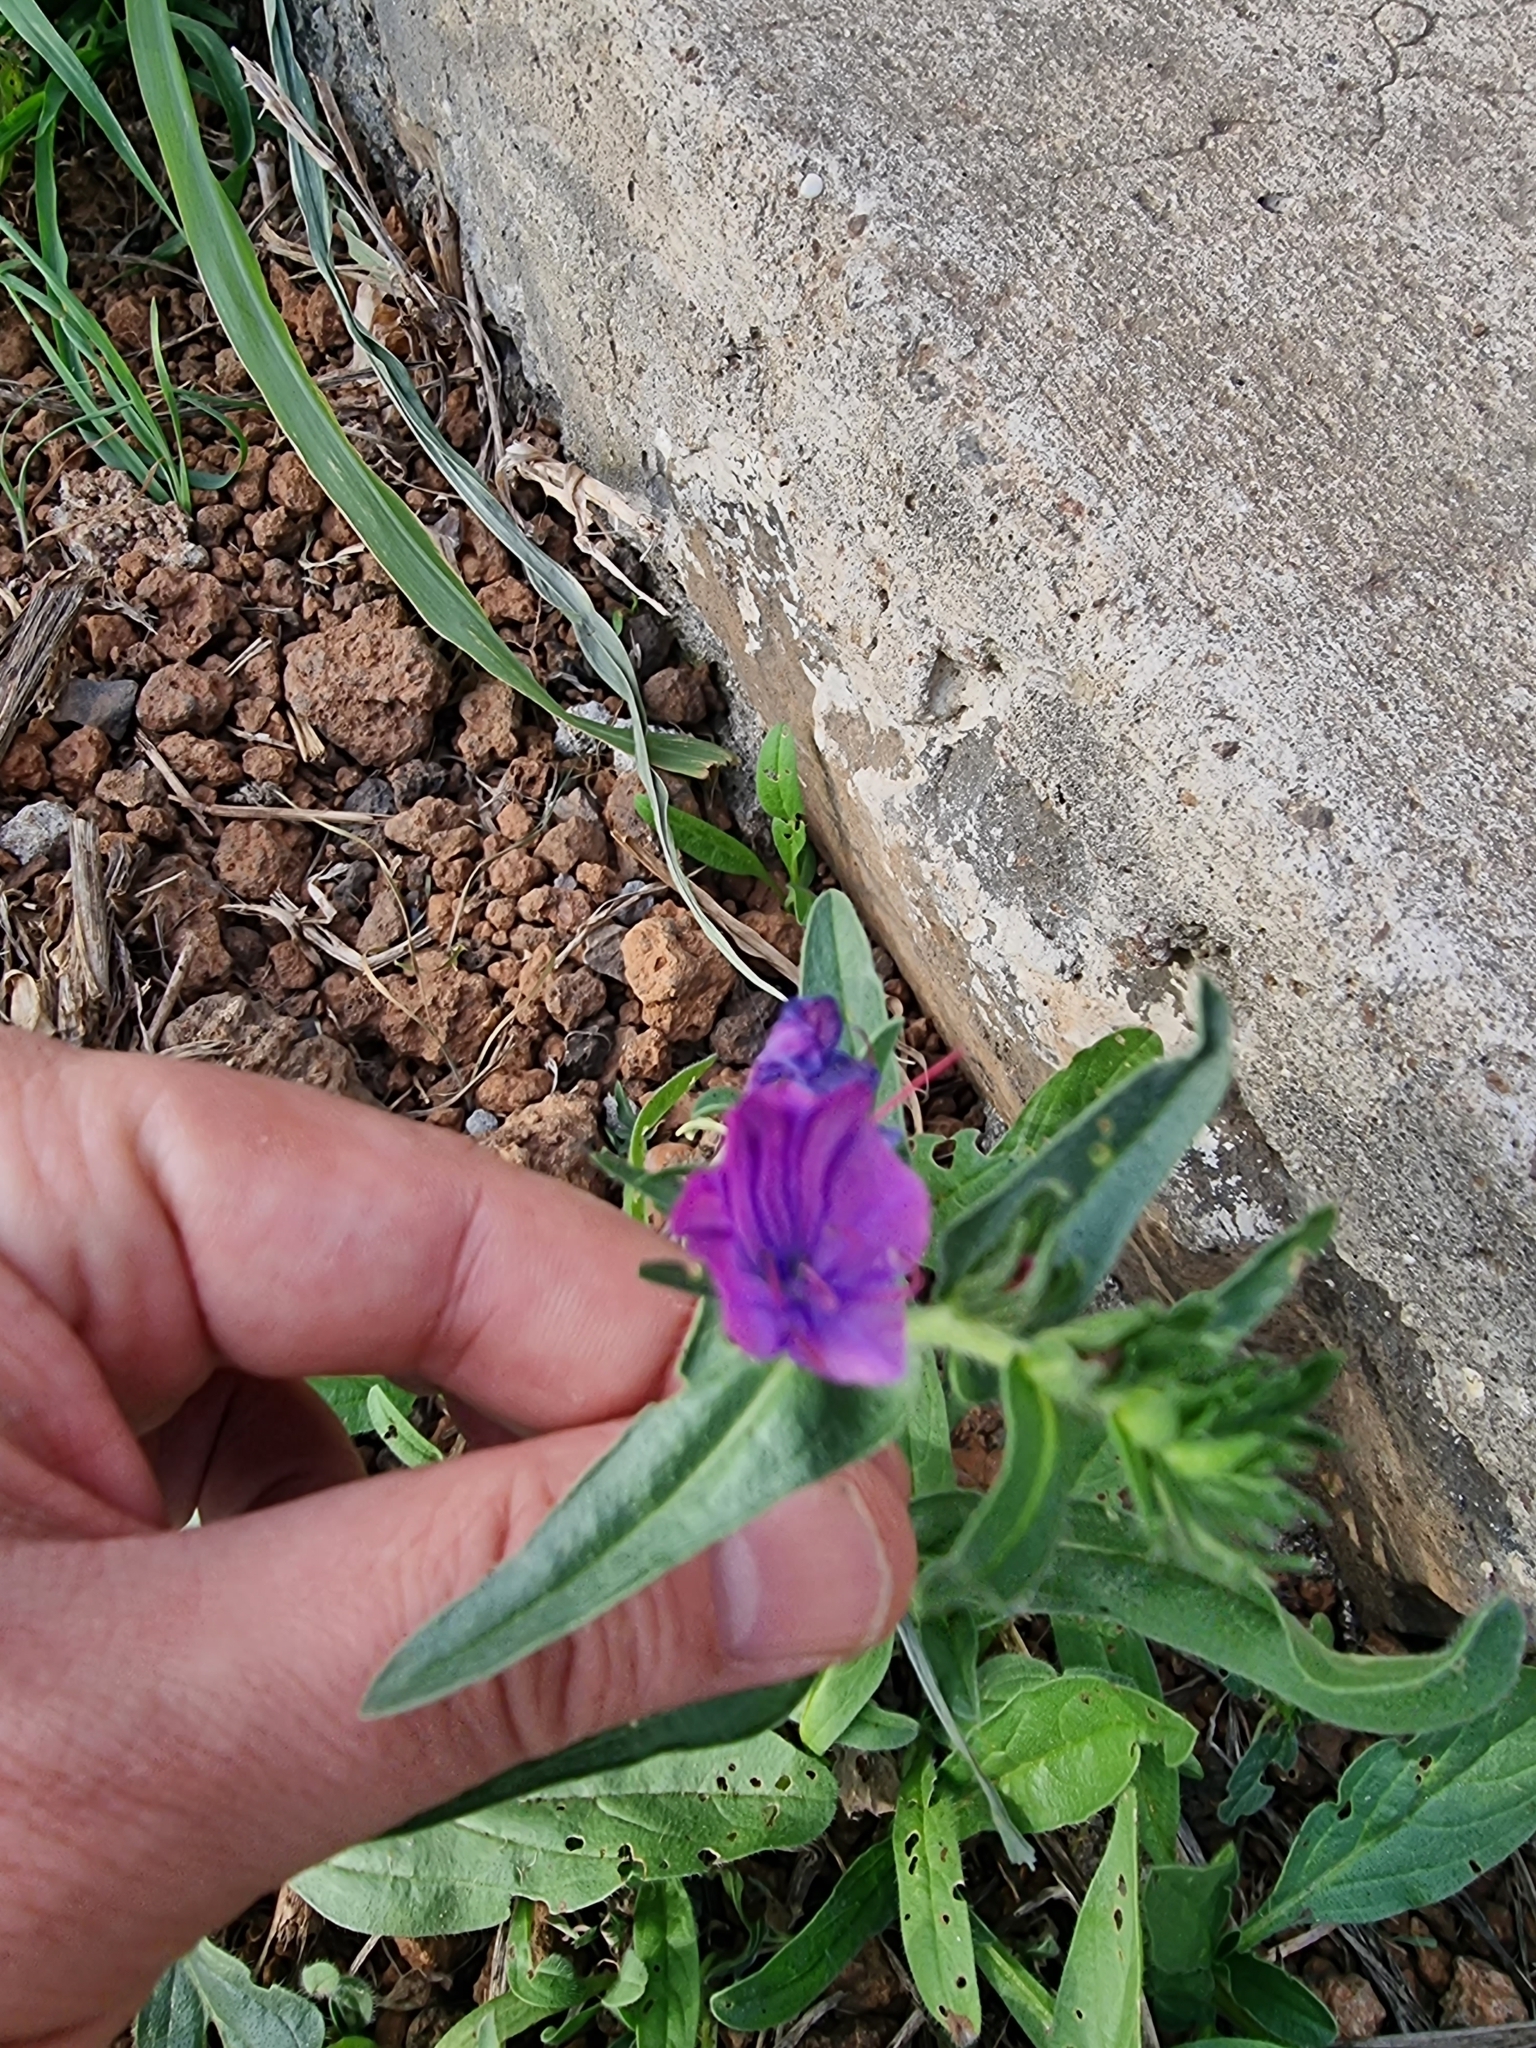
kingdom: Plantae
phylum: Tracheophyta
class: Magnoliopsida
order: Boraginales
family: Boraginaceae
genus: Echium
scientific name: Echium plantagineum
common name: Purple viper's-bugloss
